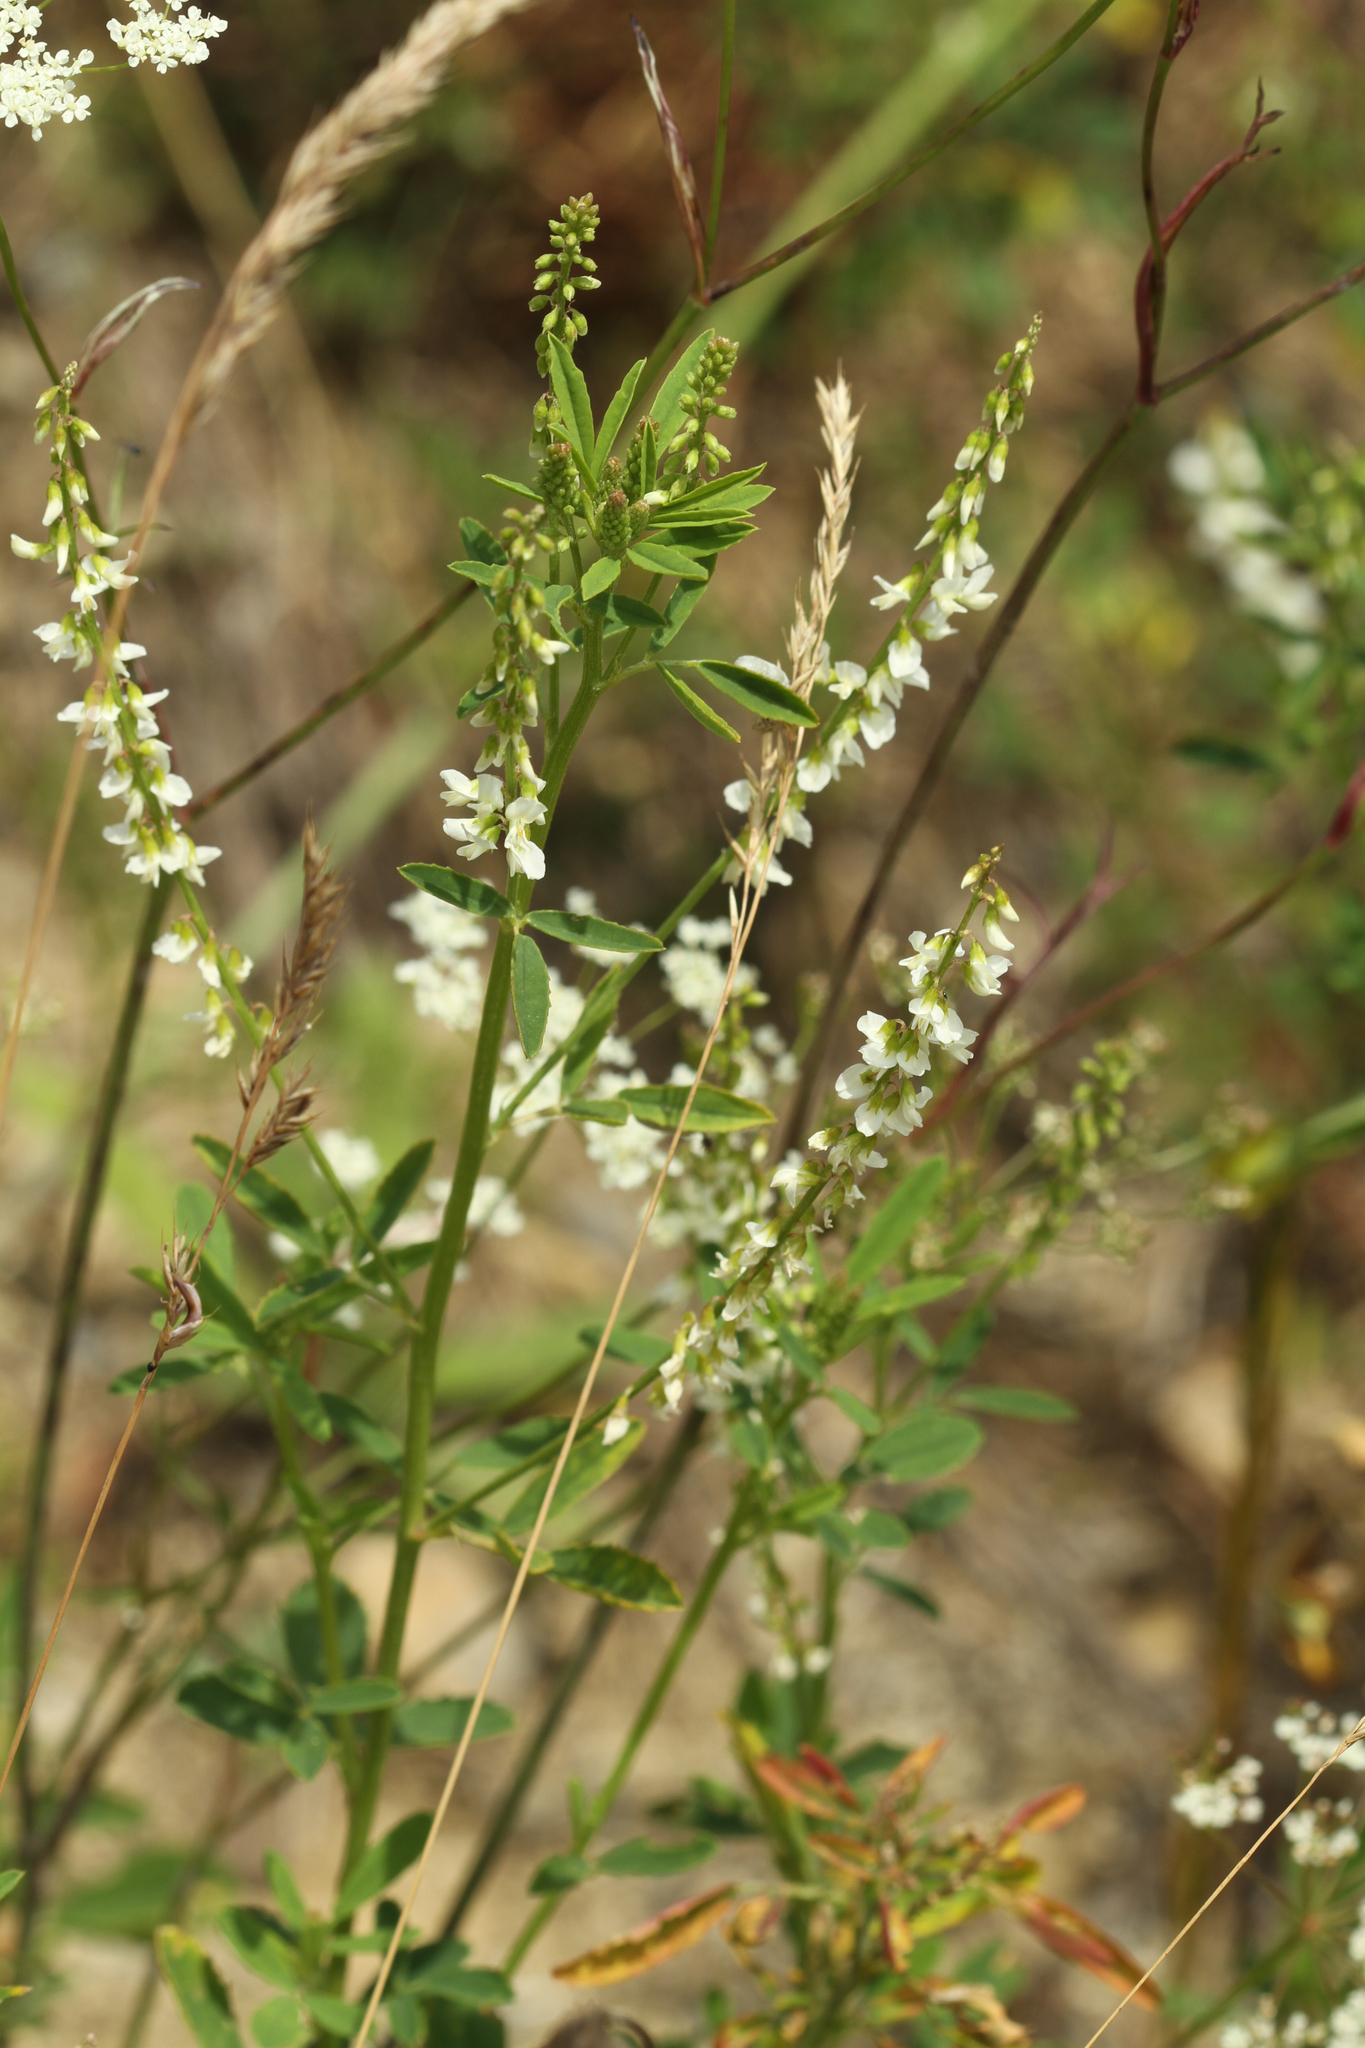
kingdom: Plantae
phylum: Tracheophyta
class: Magnoliopsida
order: Fabales
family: Fabaceae
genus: Melilotus
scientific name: Melilotus albus
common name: White melilot
